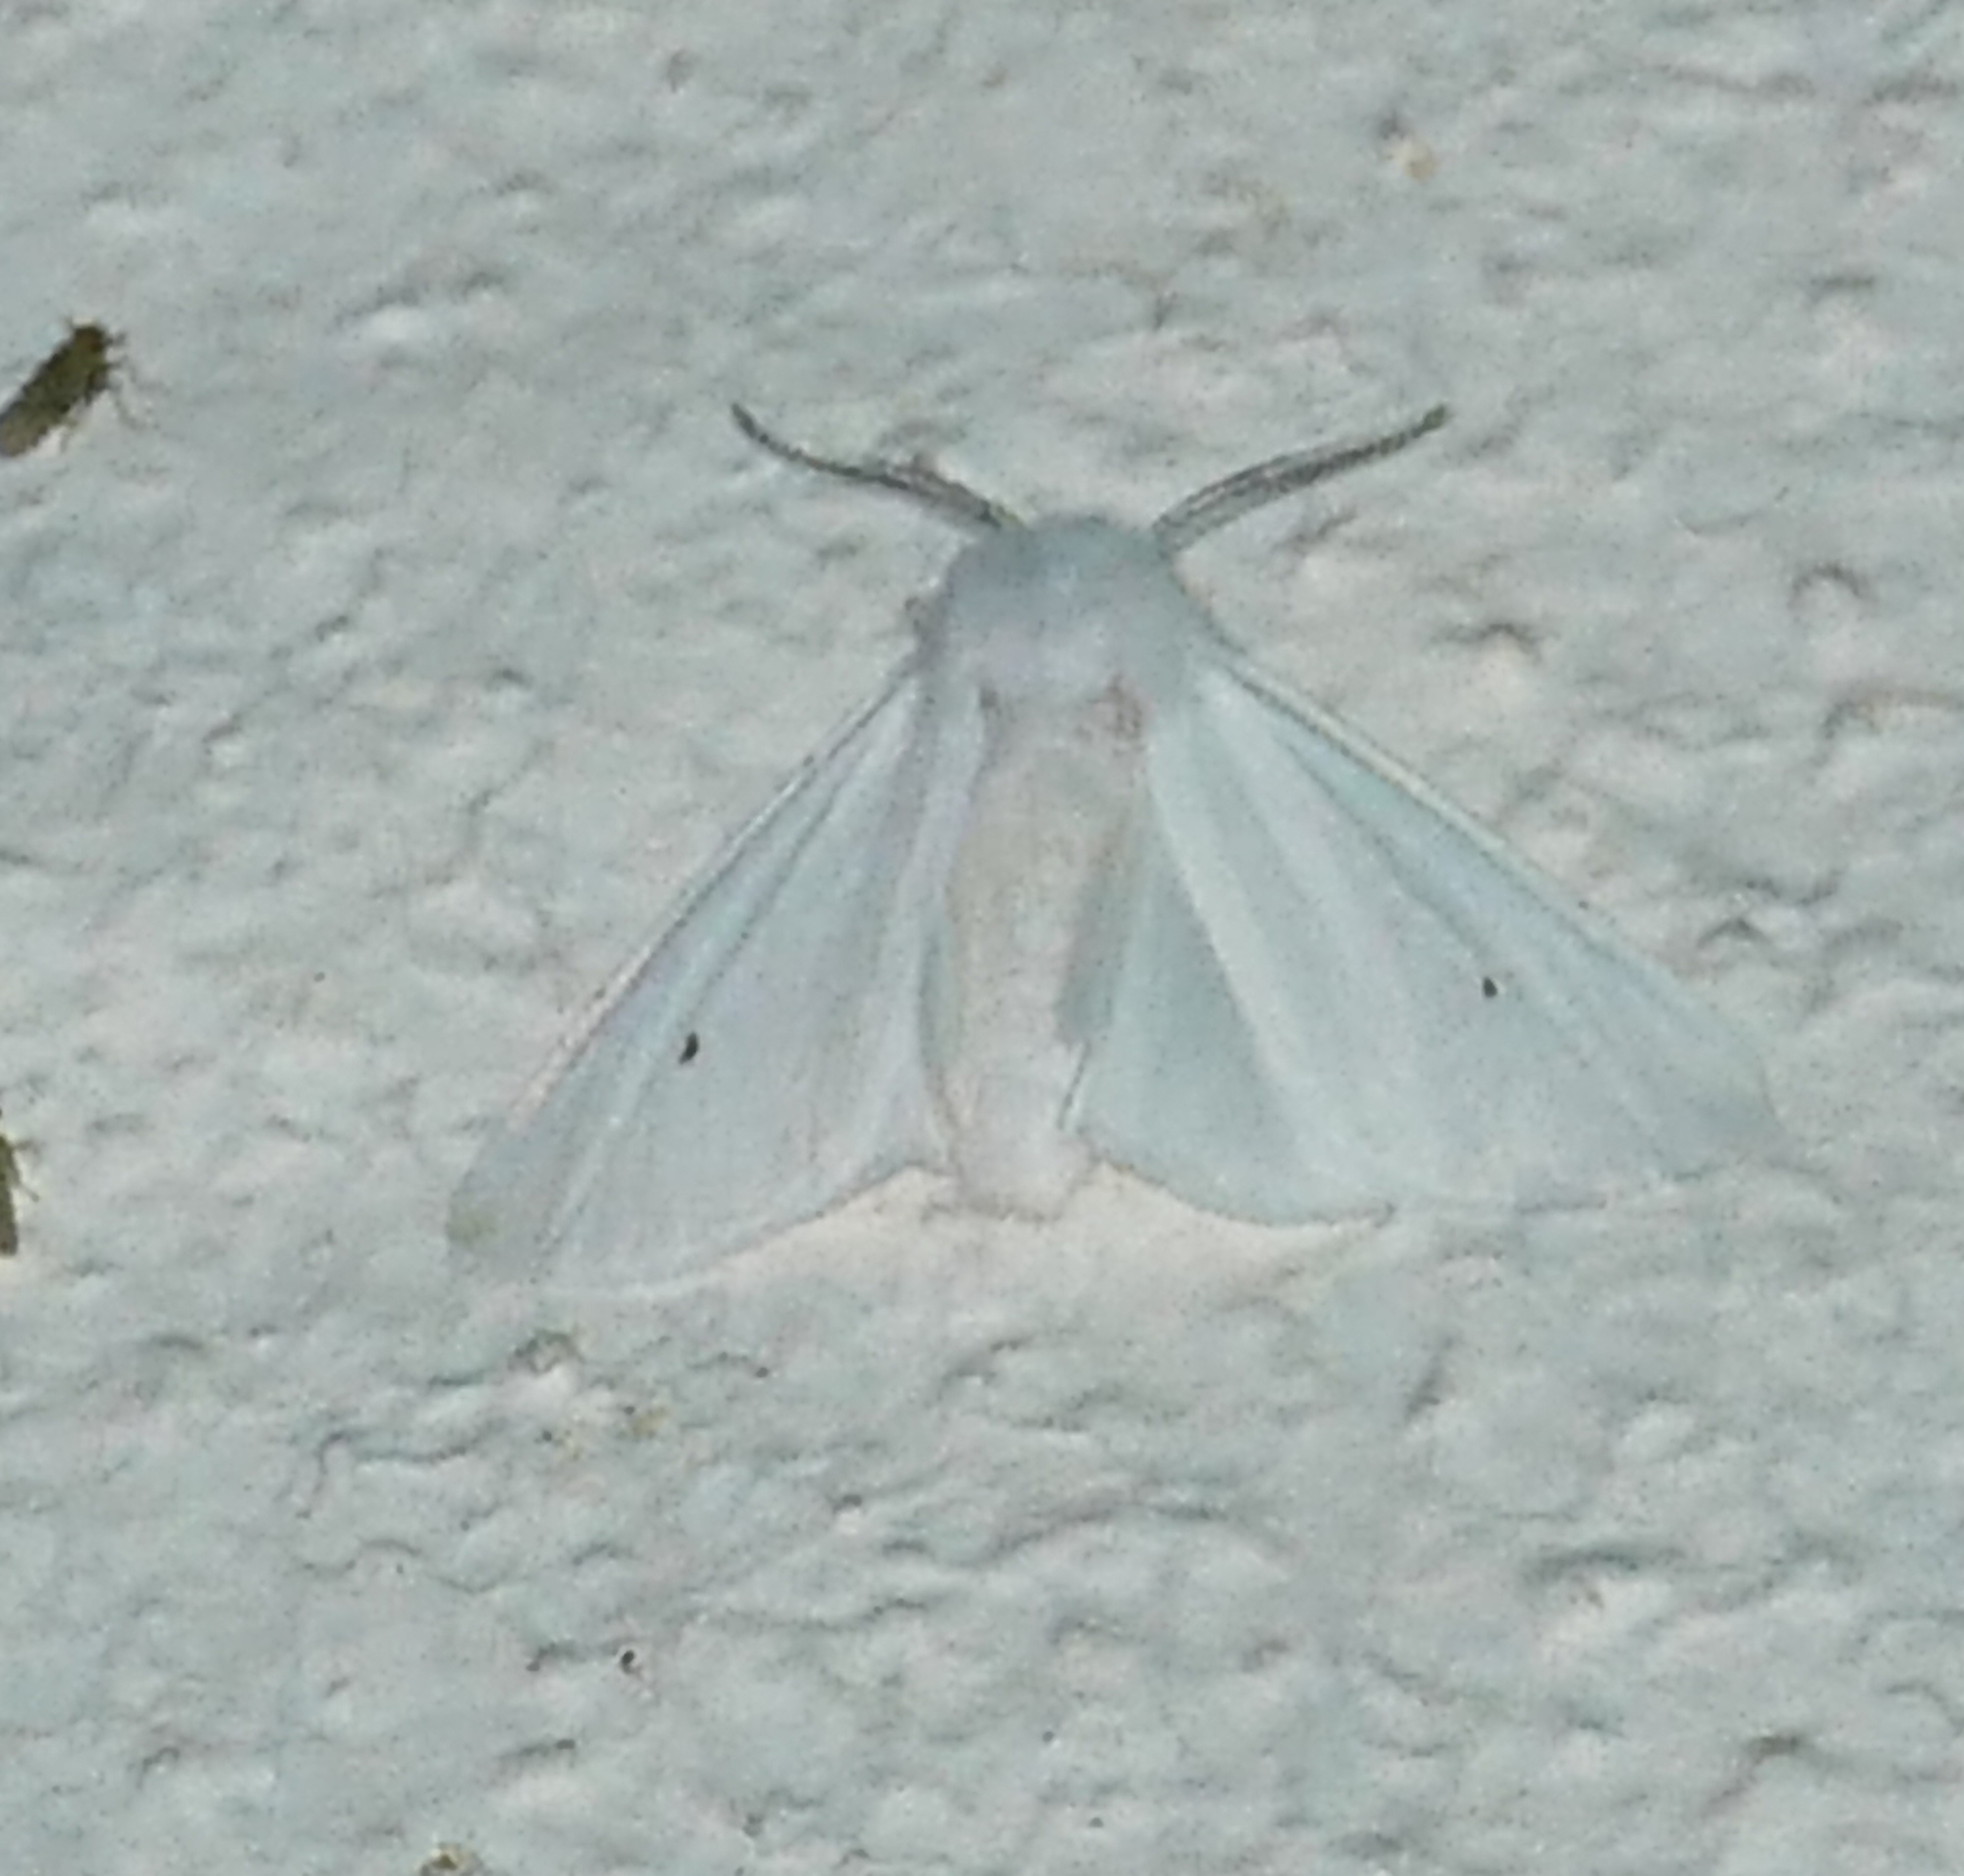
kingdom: Animalia
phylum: Arthropoda
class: Insecta
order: Lepidoptera
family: Erebidae
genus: Spilosoma
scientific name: Spilosoma congrua
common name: Agreeable tiger moth
